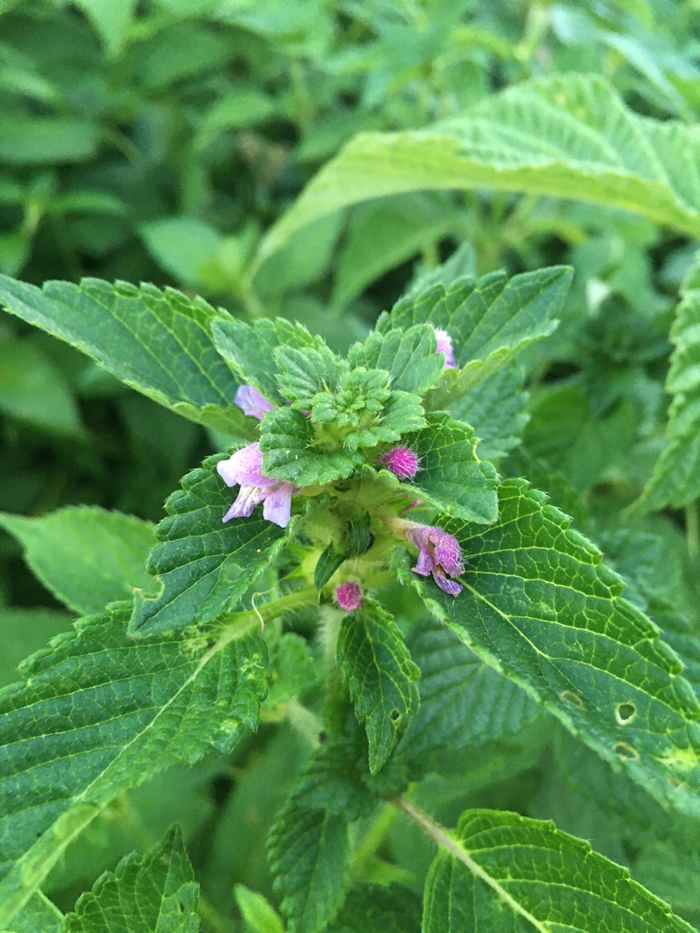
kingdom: Plantae
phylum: Tracheophyta
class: Magnoliopsida
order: Lamiales
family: Lamiaceae
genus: Galeopsis
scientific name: Galeopsis bifida
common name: Bifid hemp-nettle
